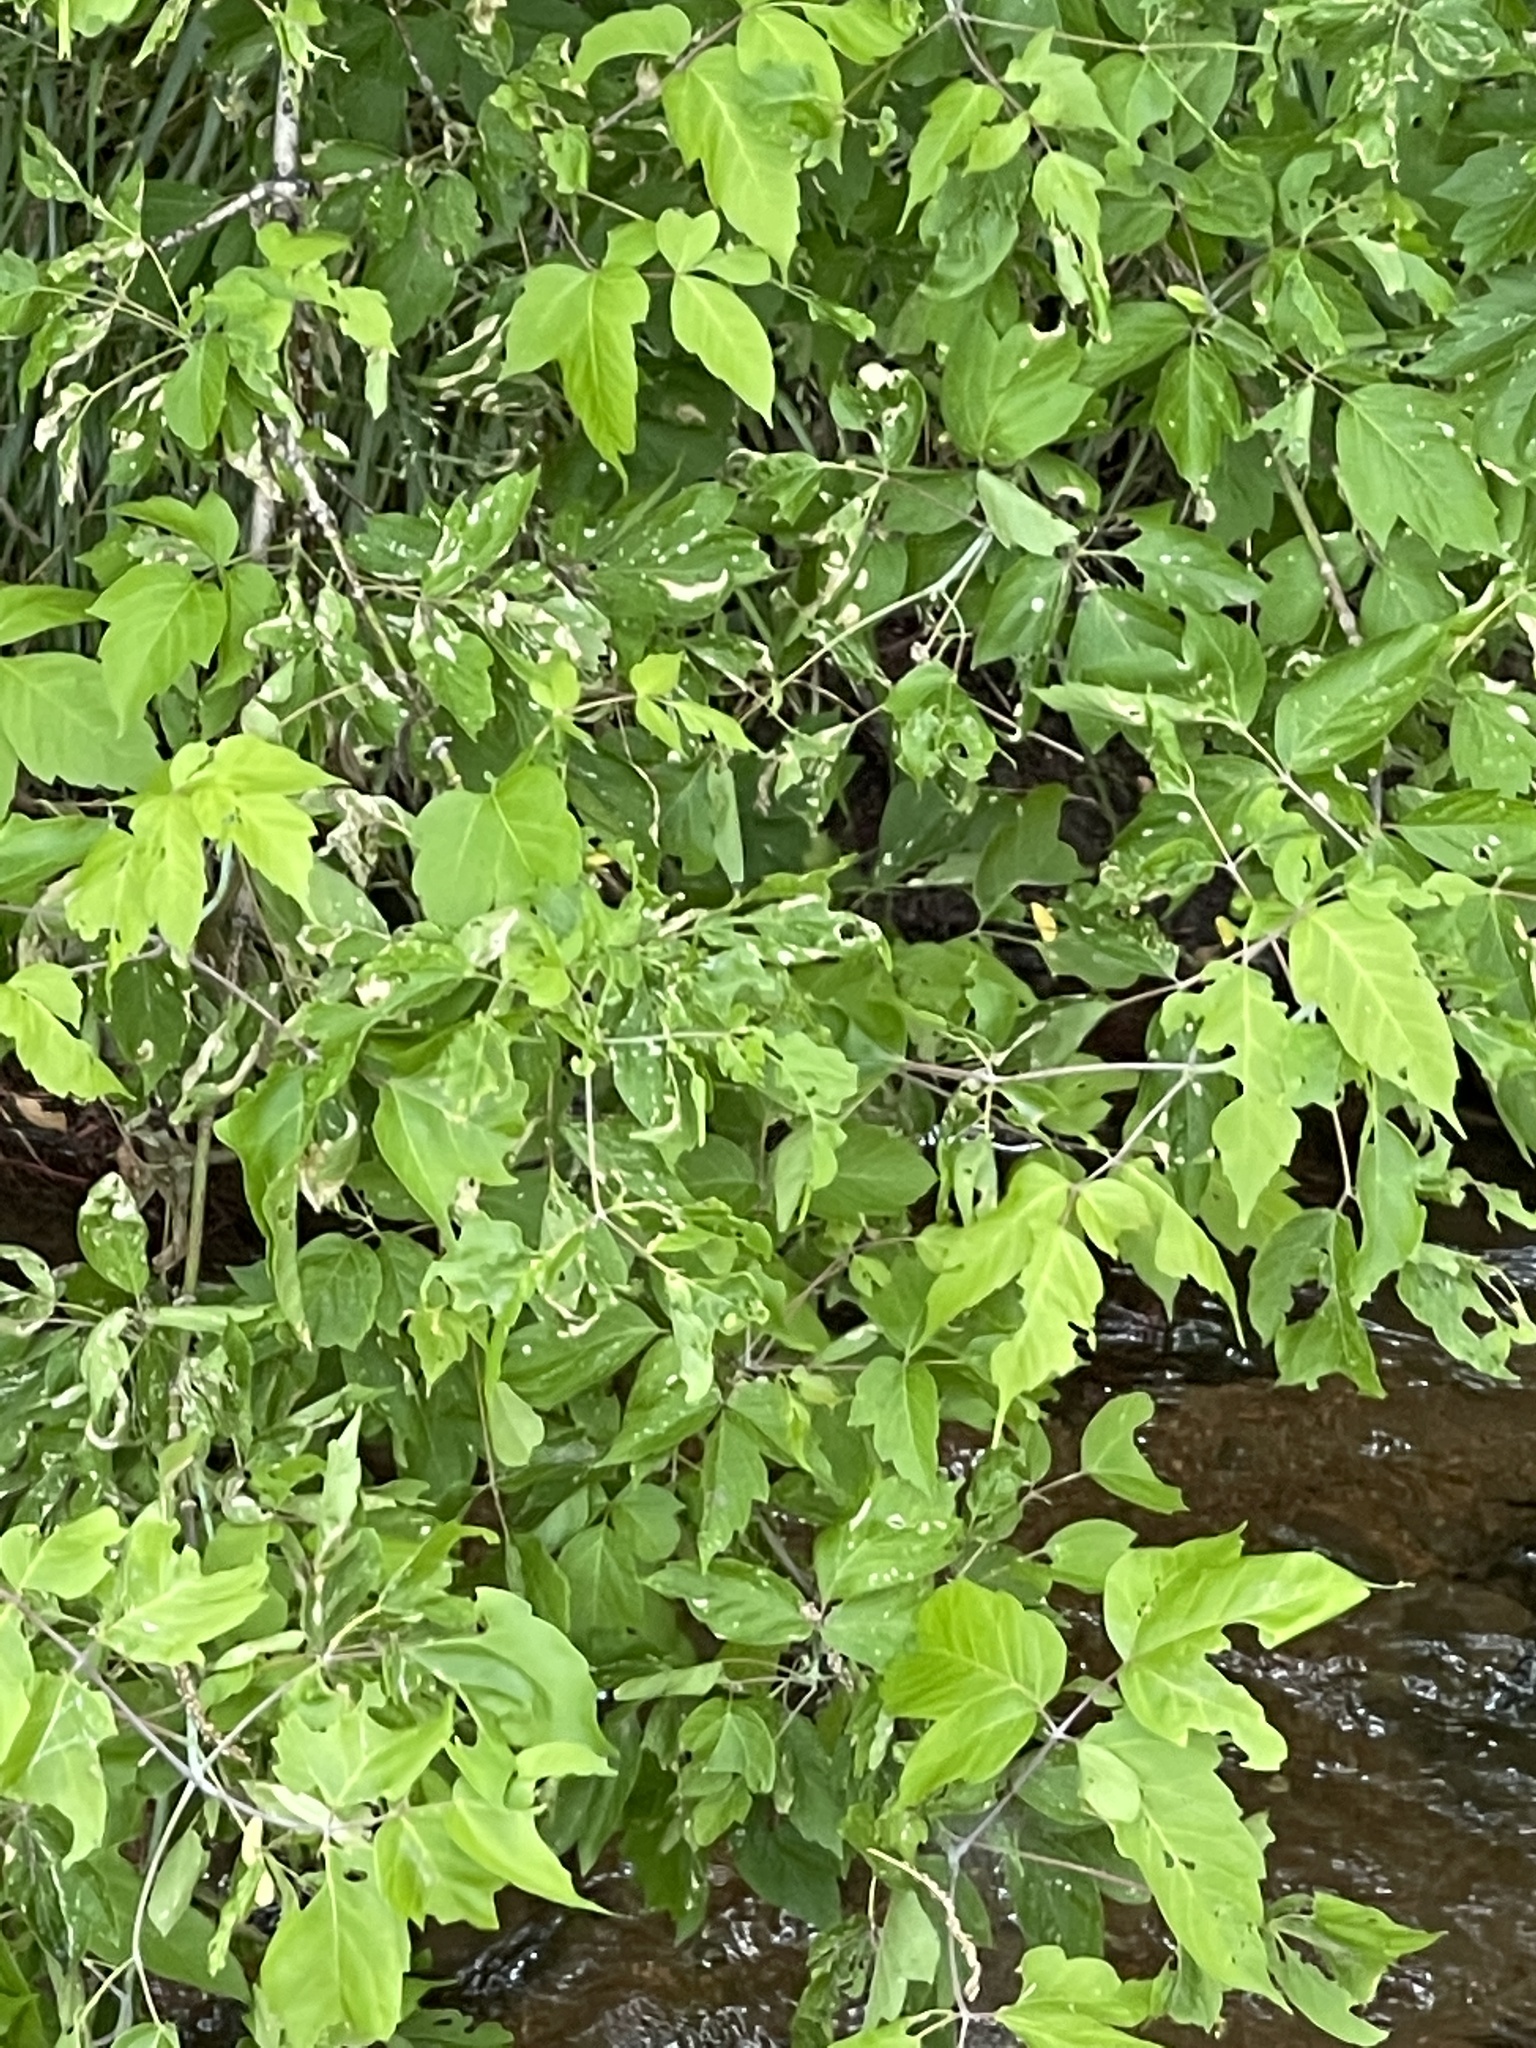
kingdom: Plantae
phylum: Tracheophyta
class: Magnoliopsida
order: Sapindales
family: Sapindaceae
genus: Acer
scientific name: Acer negundo
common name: Ashleaf maple
